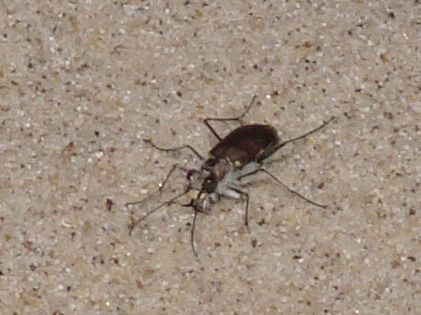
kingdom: Animalia
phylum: Arthropoda
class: Insecta
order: Coleoptera
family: Carabidae
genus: Cicindela
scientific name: Cicindela hirticollis
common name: Hairy-necked tiger beetle
